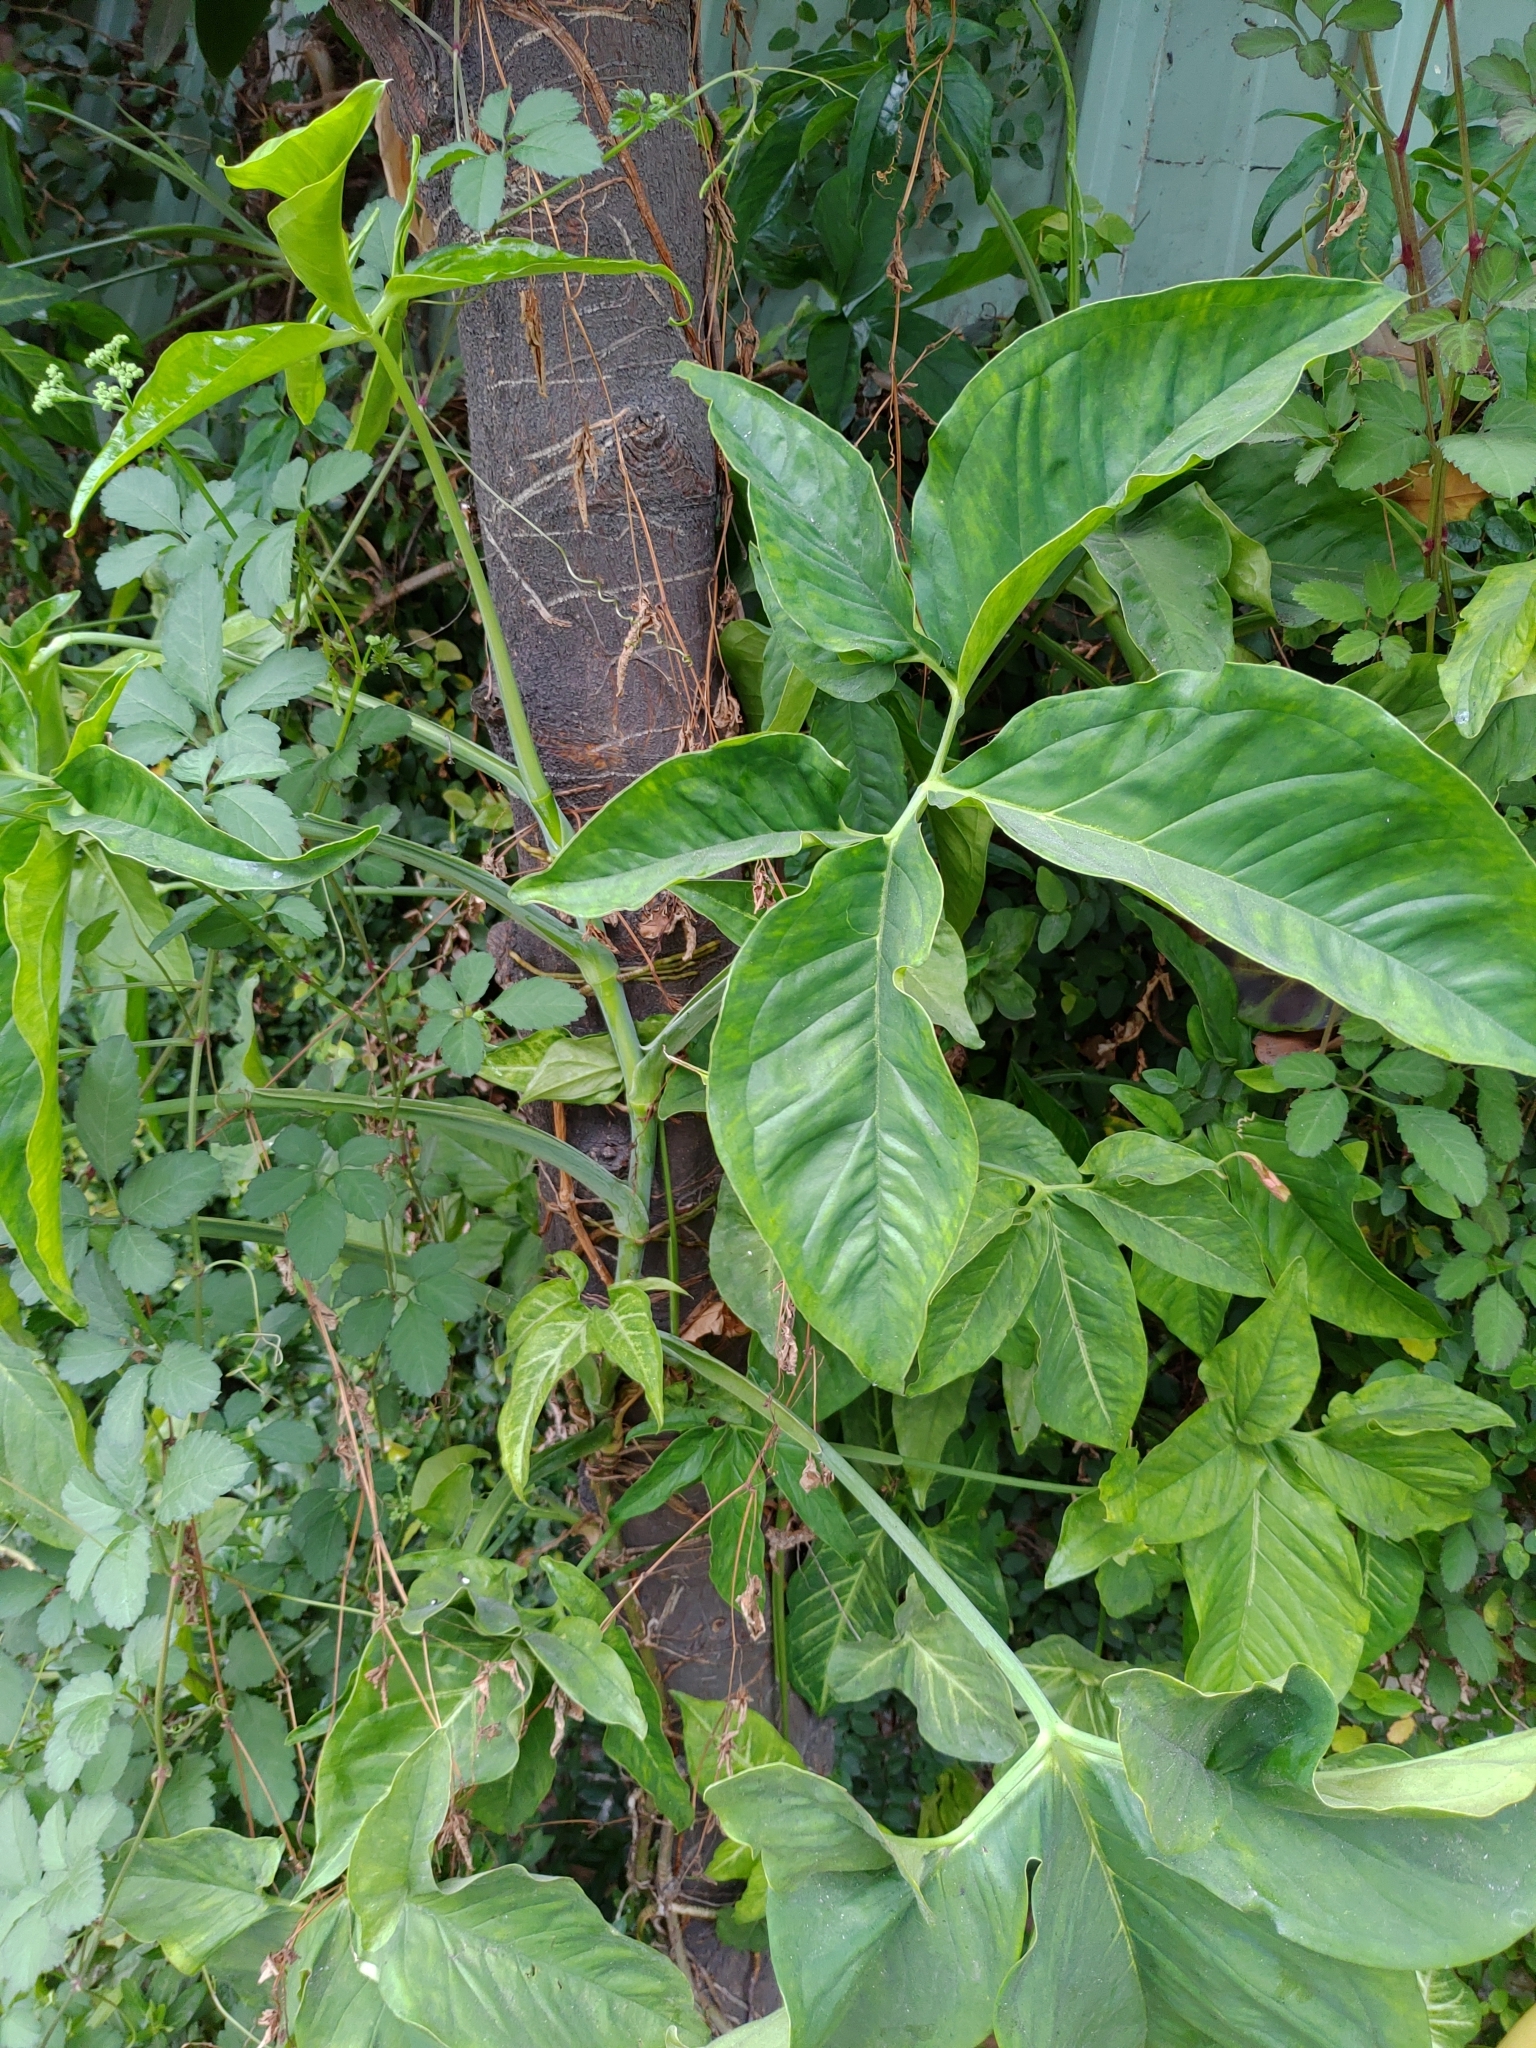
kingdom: Plantae
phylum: Tracheophyta
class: Liliopsida
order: Alismatales
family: Araceae
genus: Syngonium
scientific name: Syngonium angustatum
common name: Fivefingers
